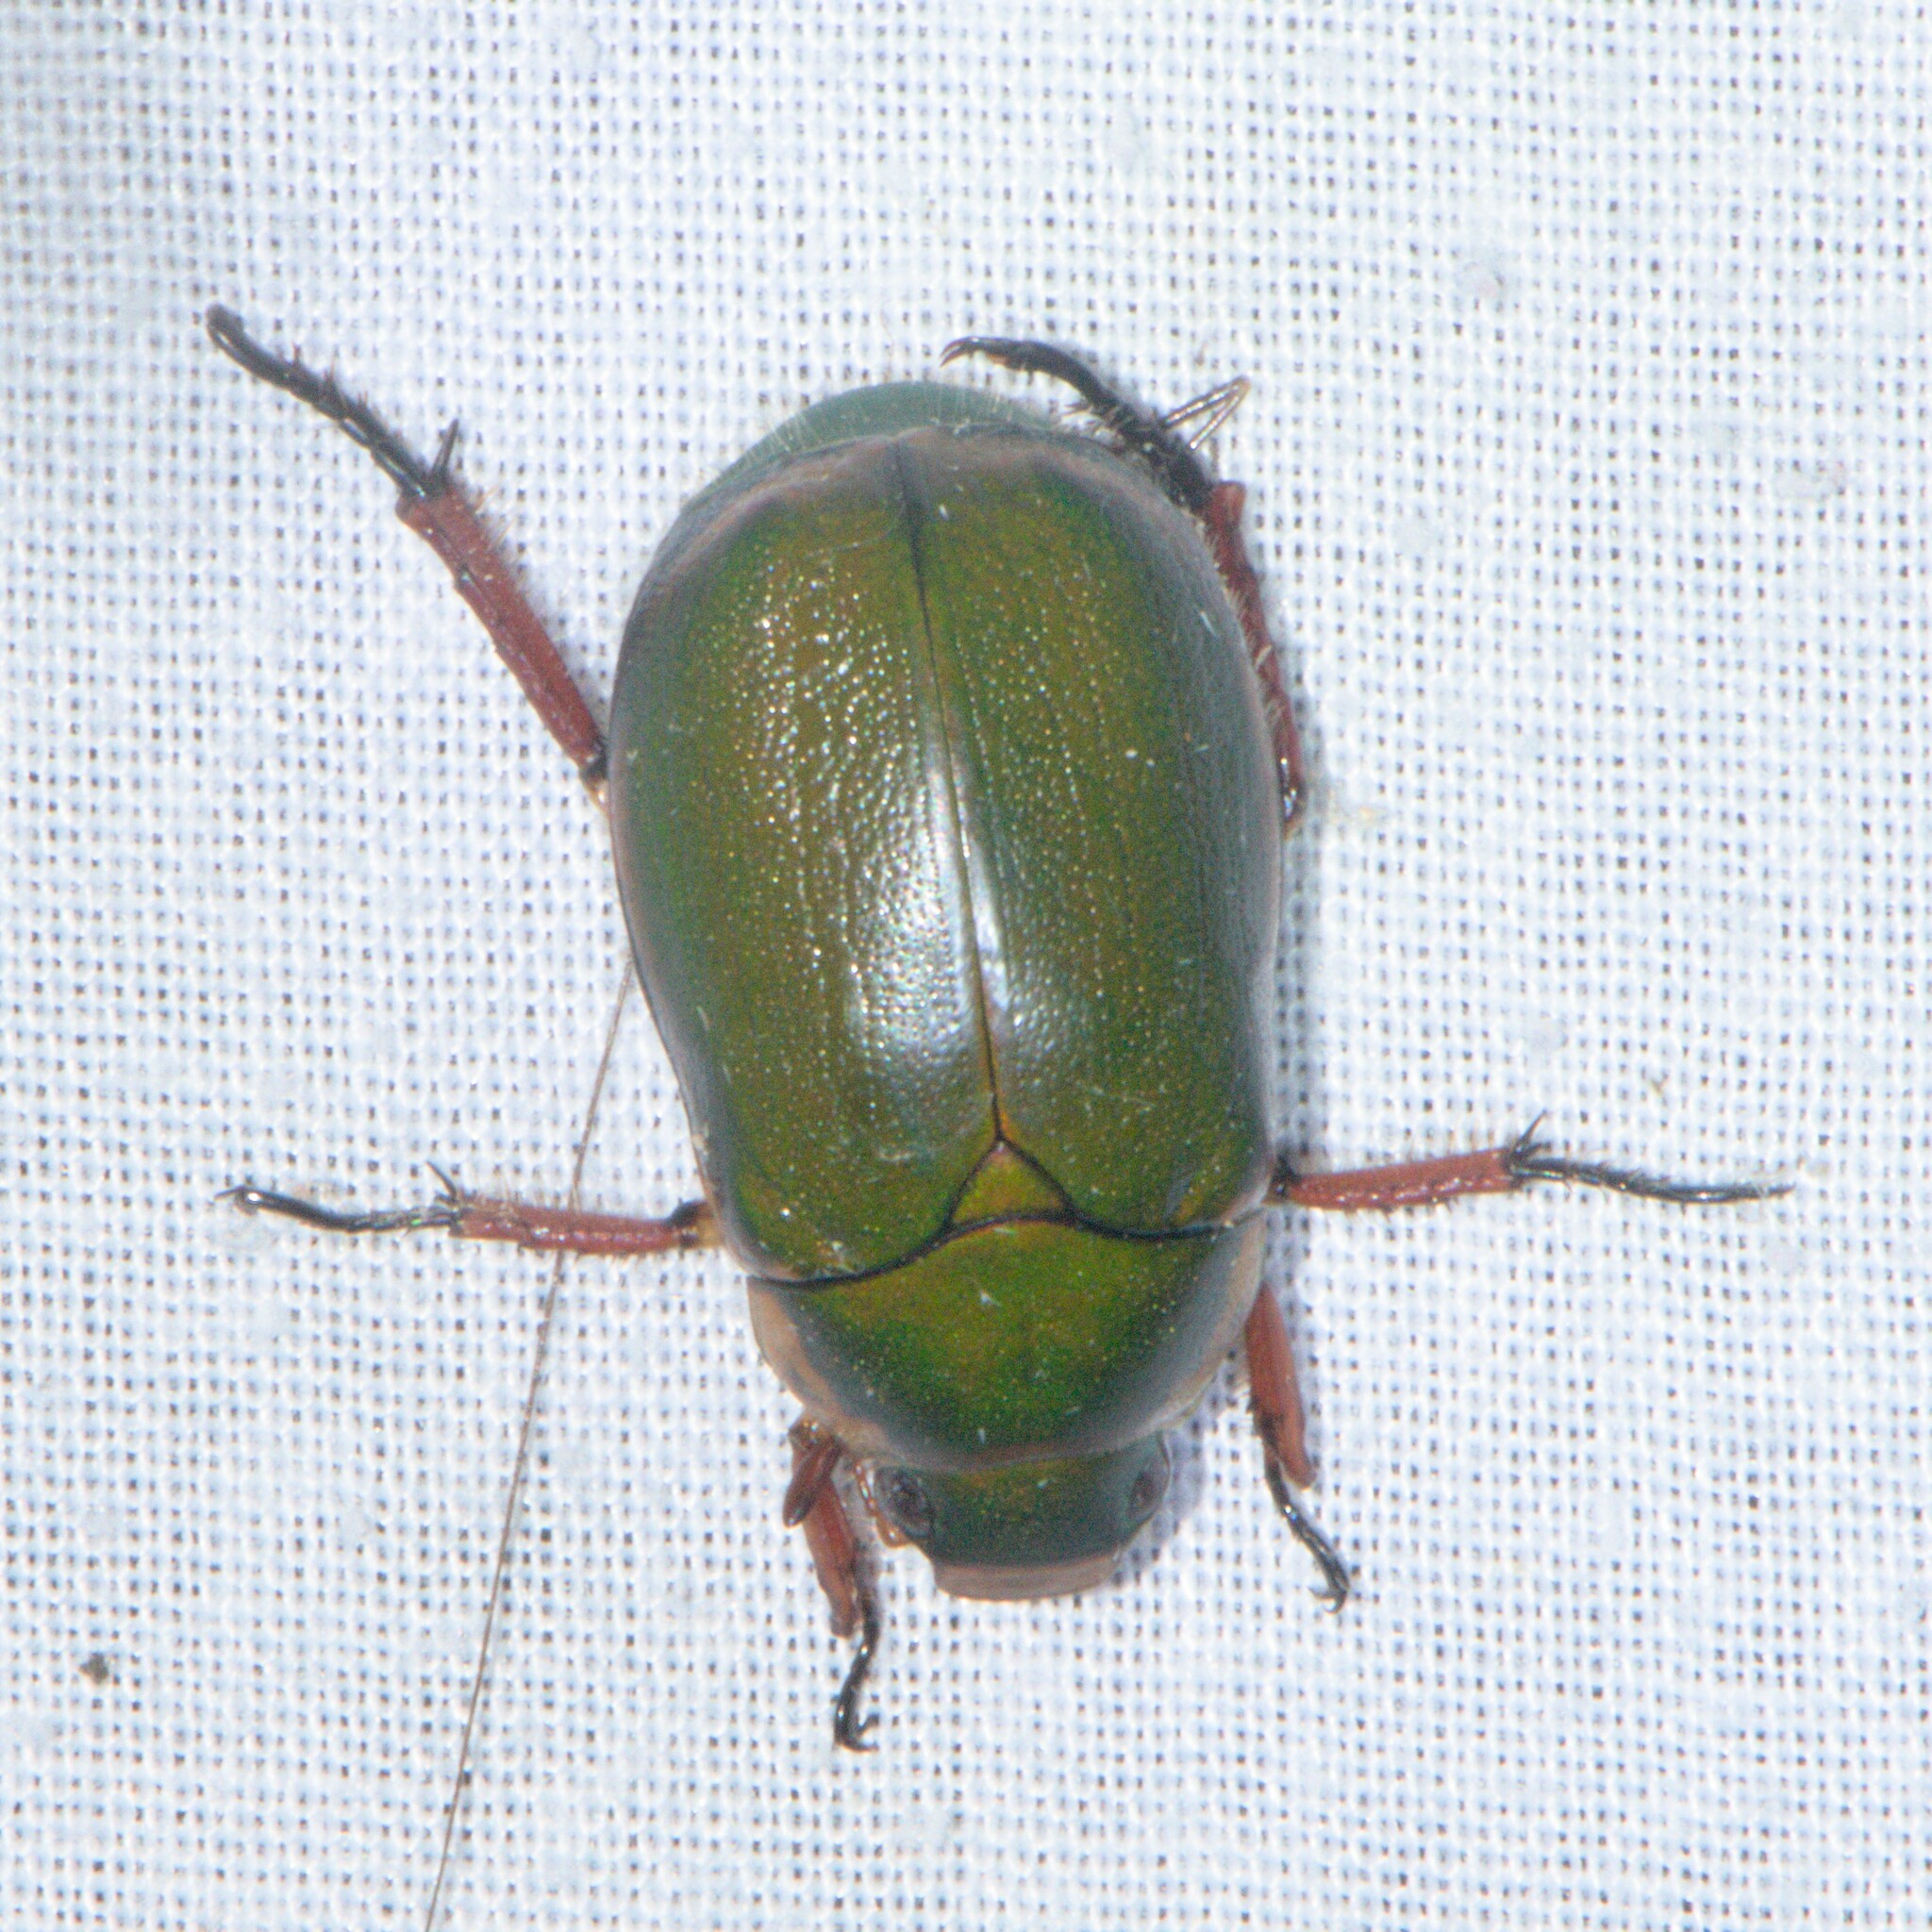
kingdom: Animalia
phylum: Arthropoda
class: Insecta
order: Coleoptera
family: Scarabaeidae
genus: Mimela
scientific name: Mimela passerinii
